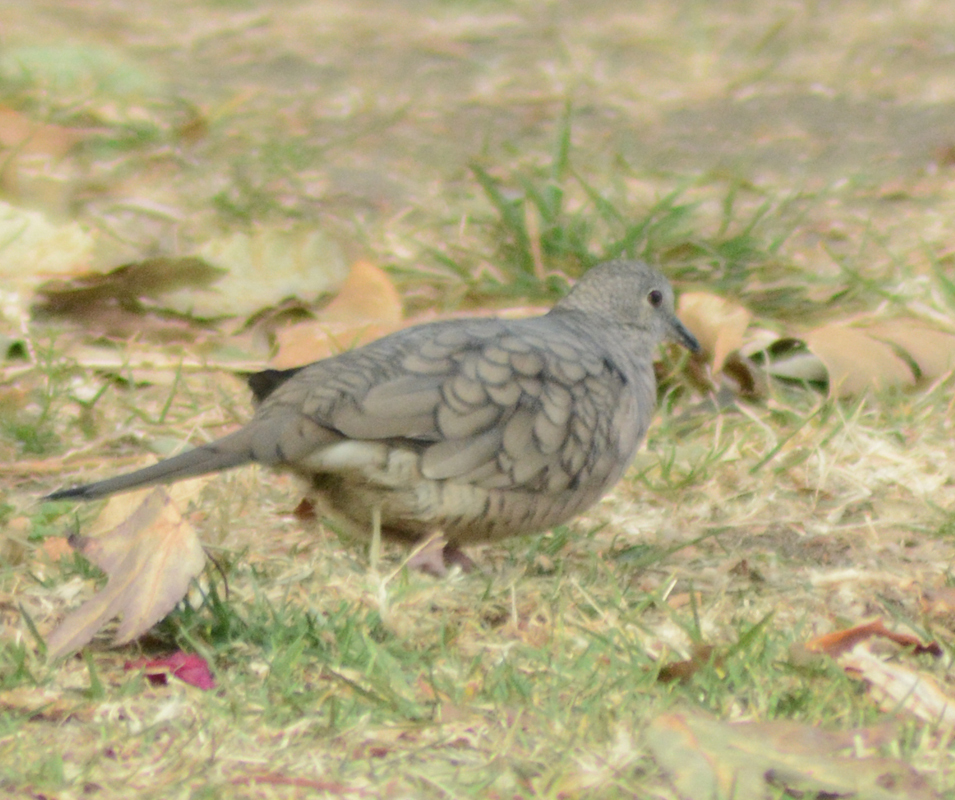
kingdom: Animalia
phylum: Chordata
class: Aves
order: Columbiformes
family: Columbidae
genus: Columbina
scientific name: Columbina inca
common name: Inca dove
